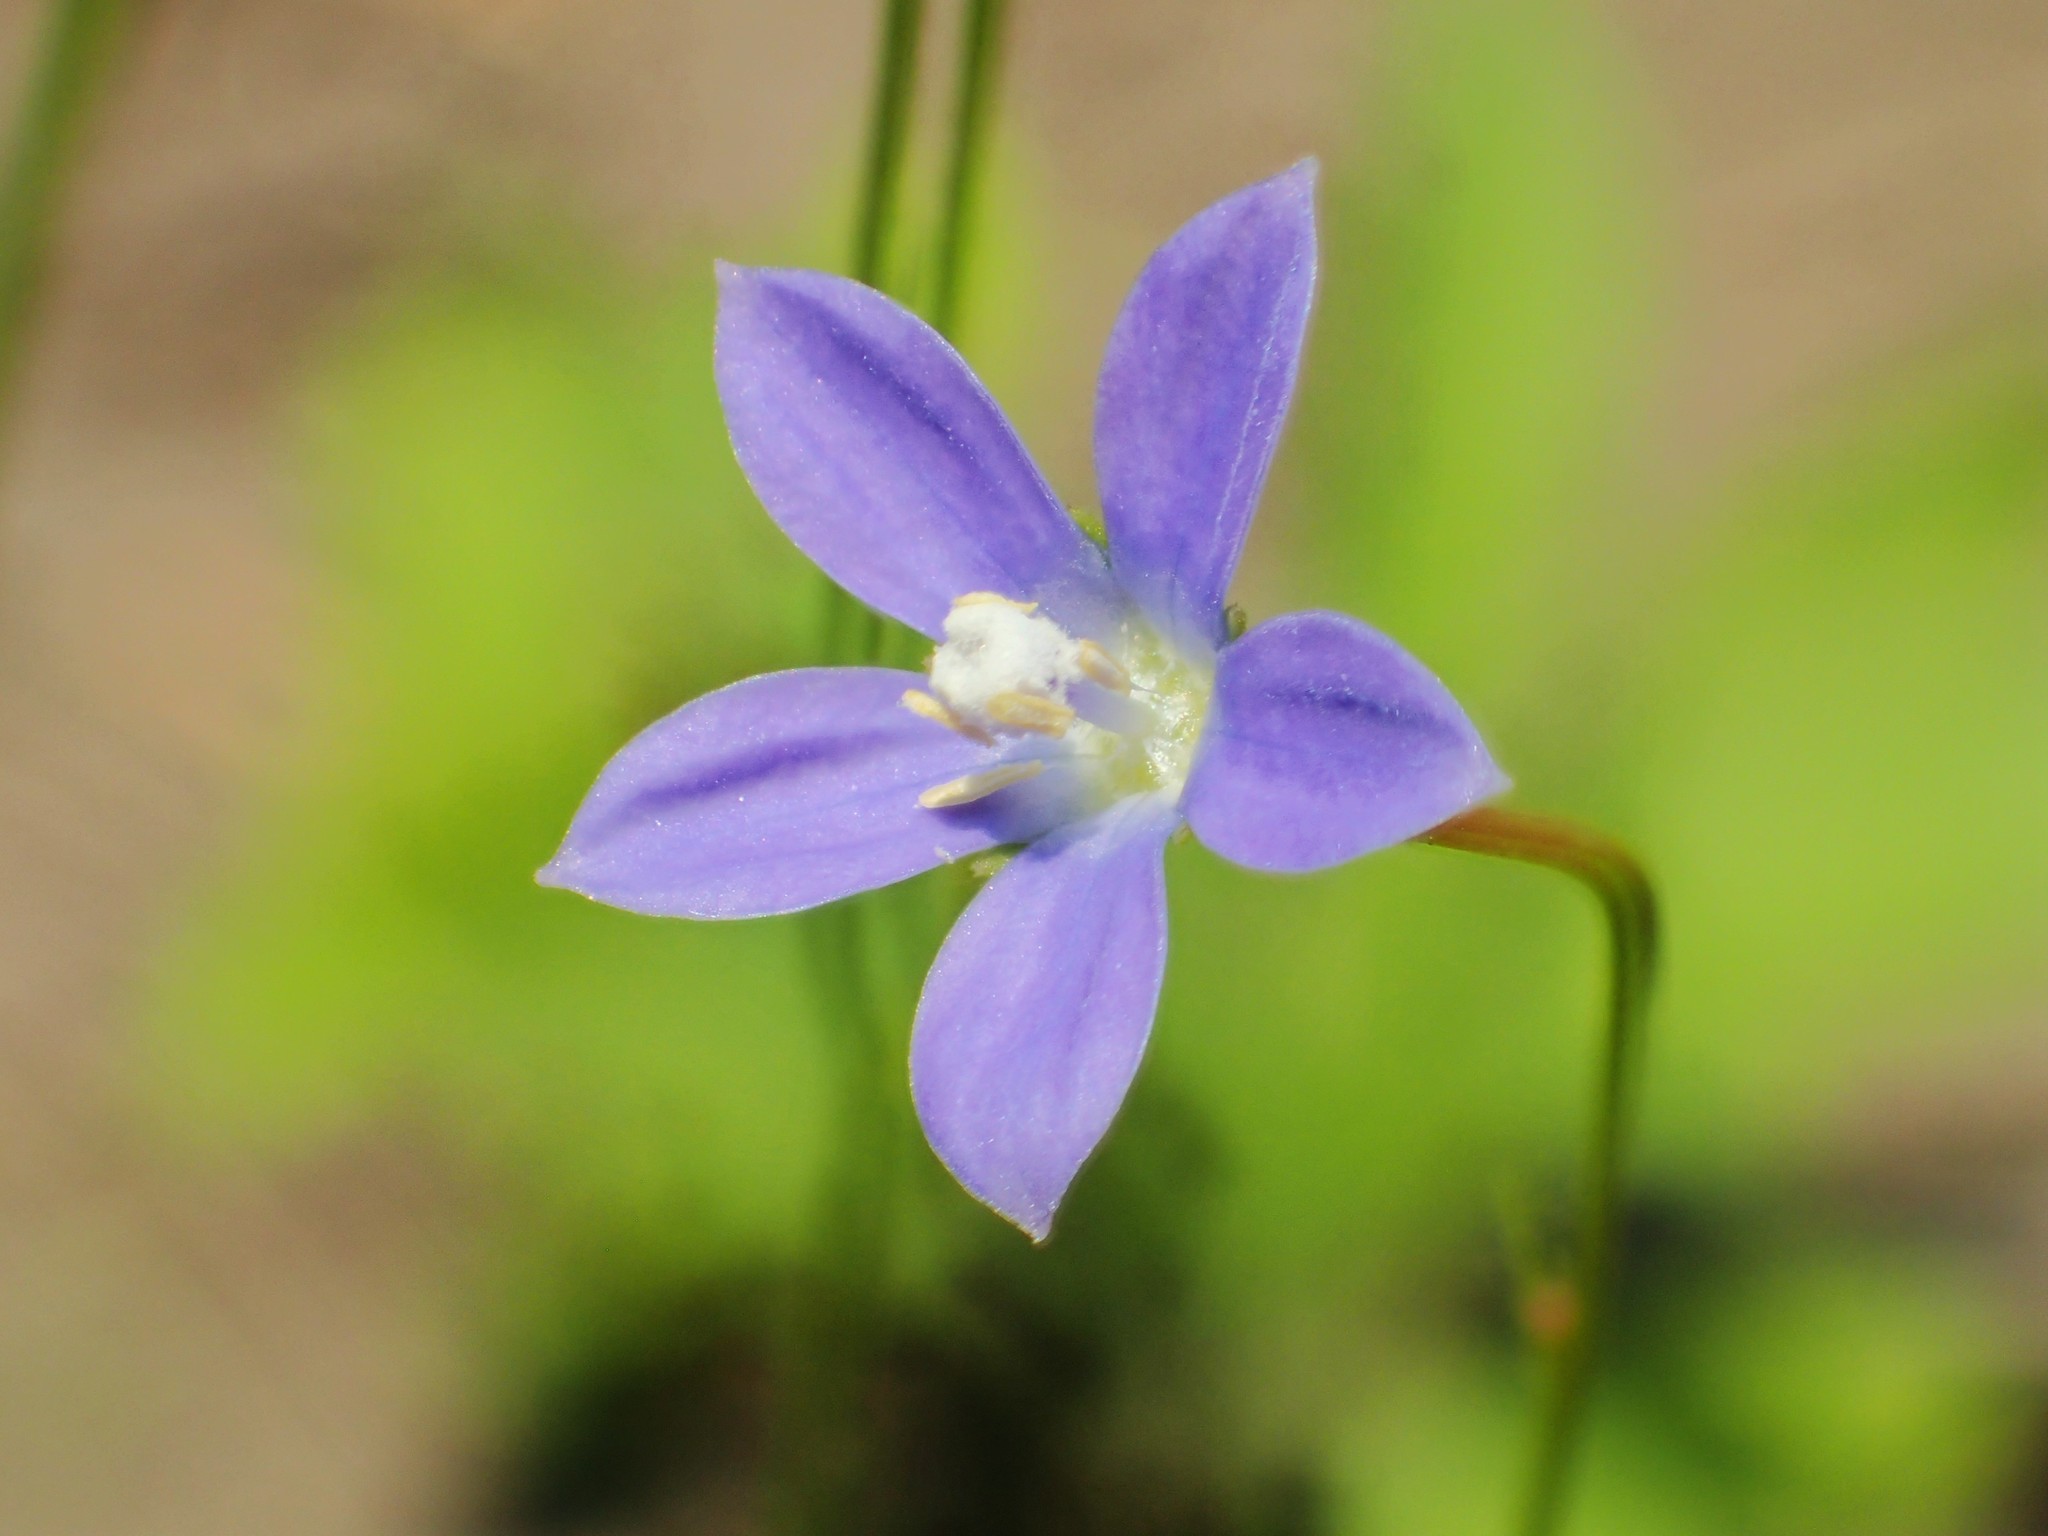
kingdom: Plantae
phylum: Tracheophyta
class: Magnoliopsida
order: Asterales
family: Campanulaceae
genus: Wahlenbergia
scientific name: Wahlenbergia marginata
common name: Southern rockbell
